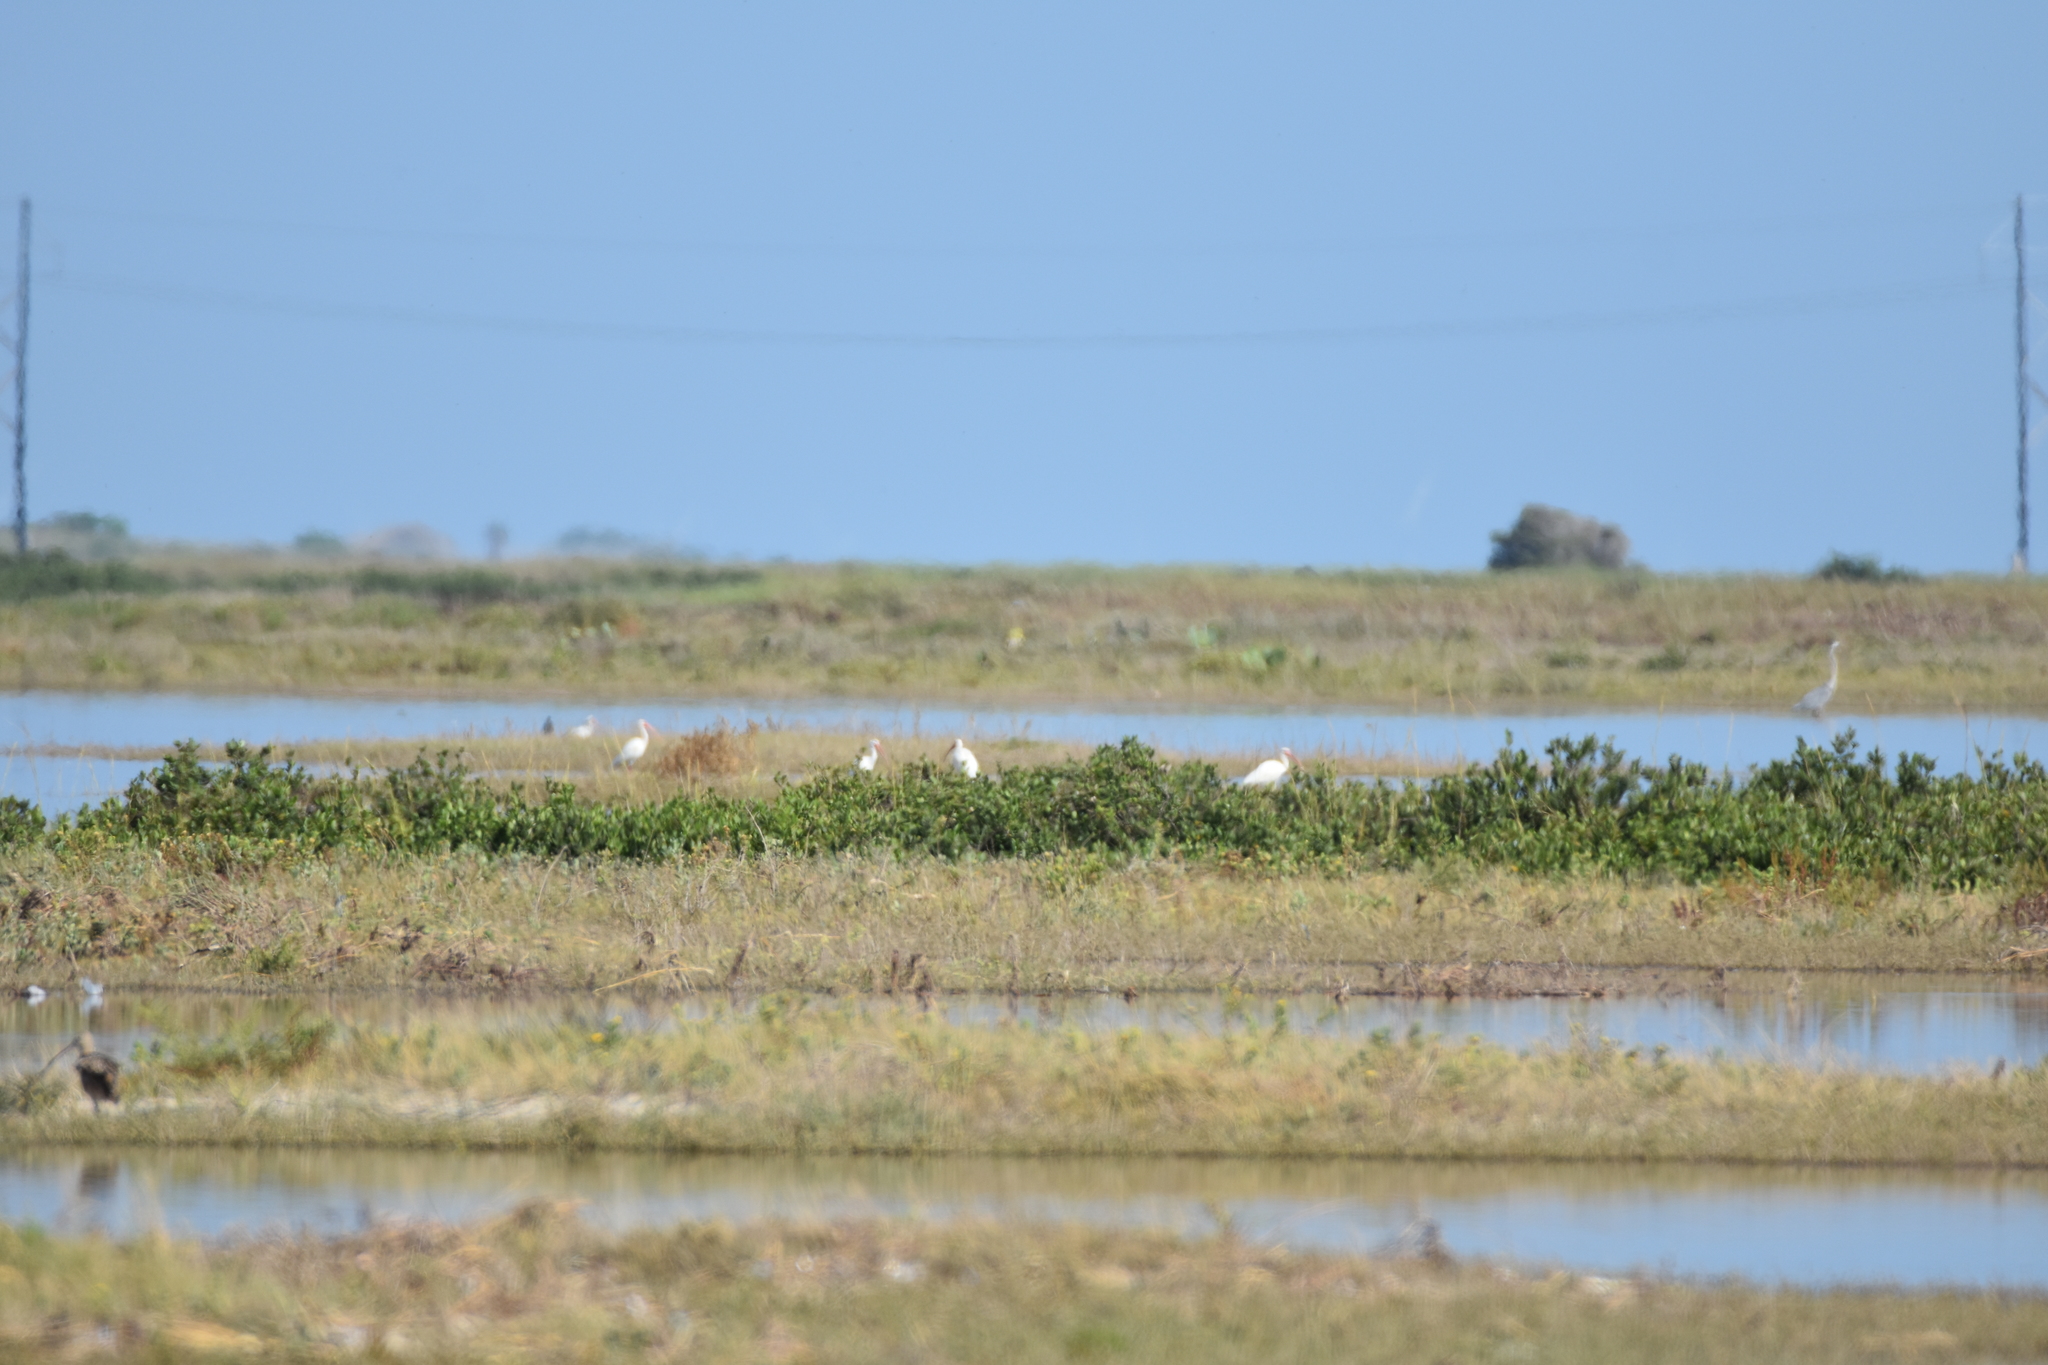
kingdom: Animalia
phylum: Chordata
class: Aves
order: Pelecaniformes
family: Threskiornithidae
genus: Eudocimus
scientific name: Eudocimus albus
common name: White ibis
